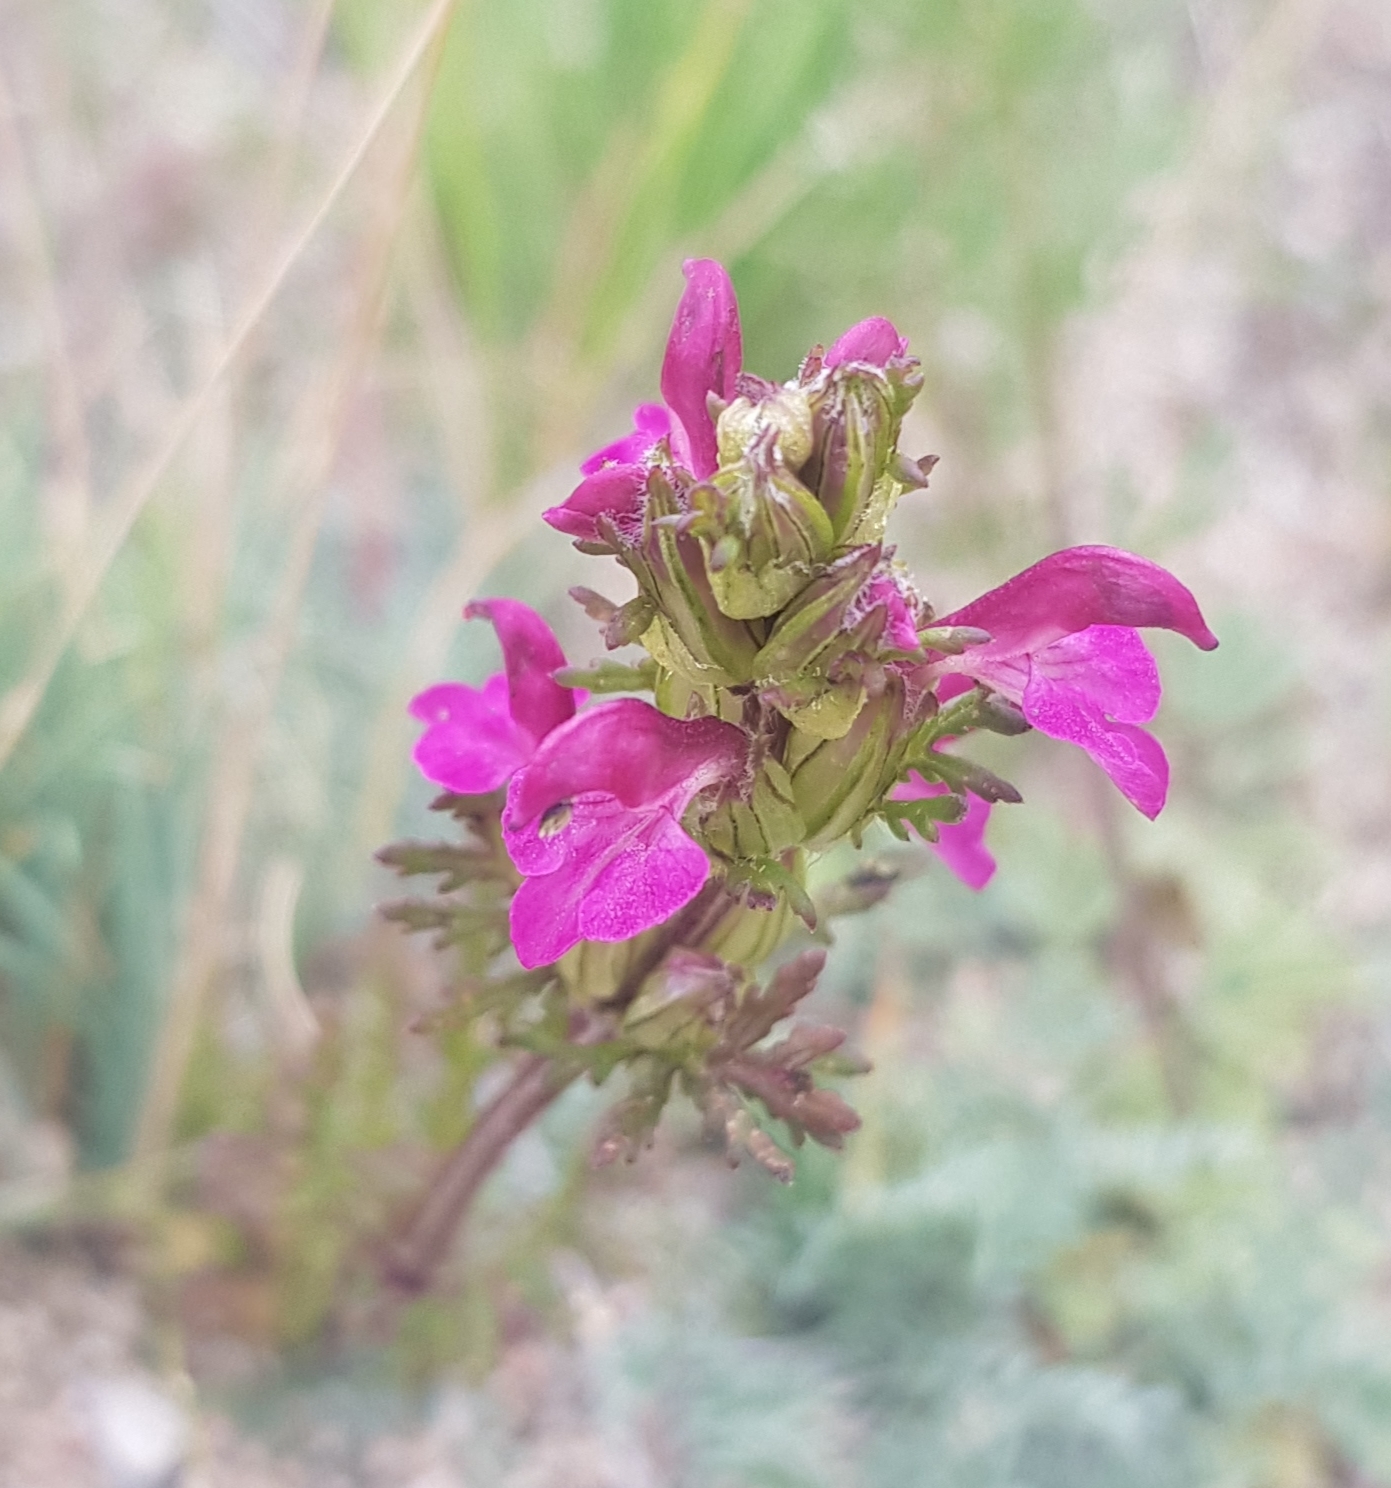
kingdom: Plantae
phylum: Tracheophyta
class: Magnoliopsida
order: Lamiales
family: Orobanchaceae
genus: Pedicularis
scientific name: Pedicularis myriophylla
